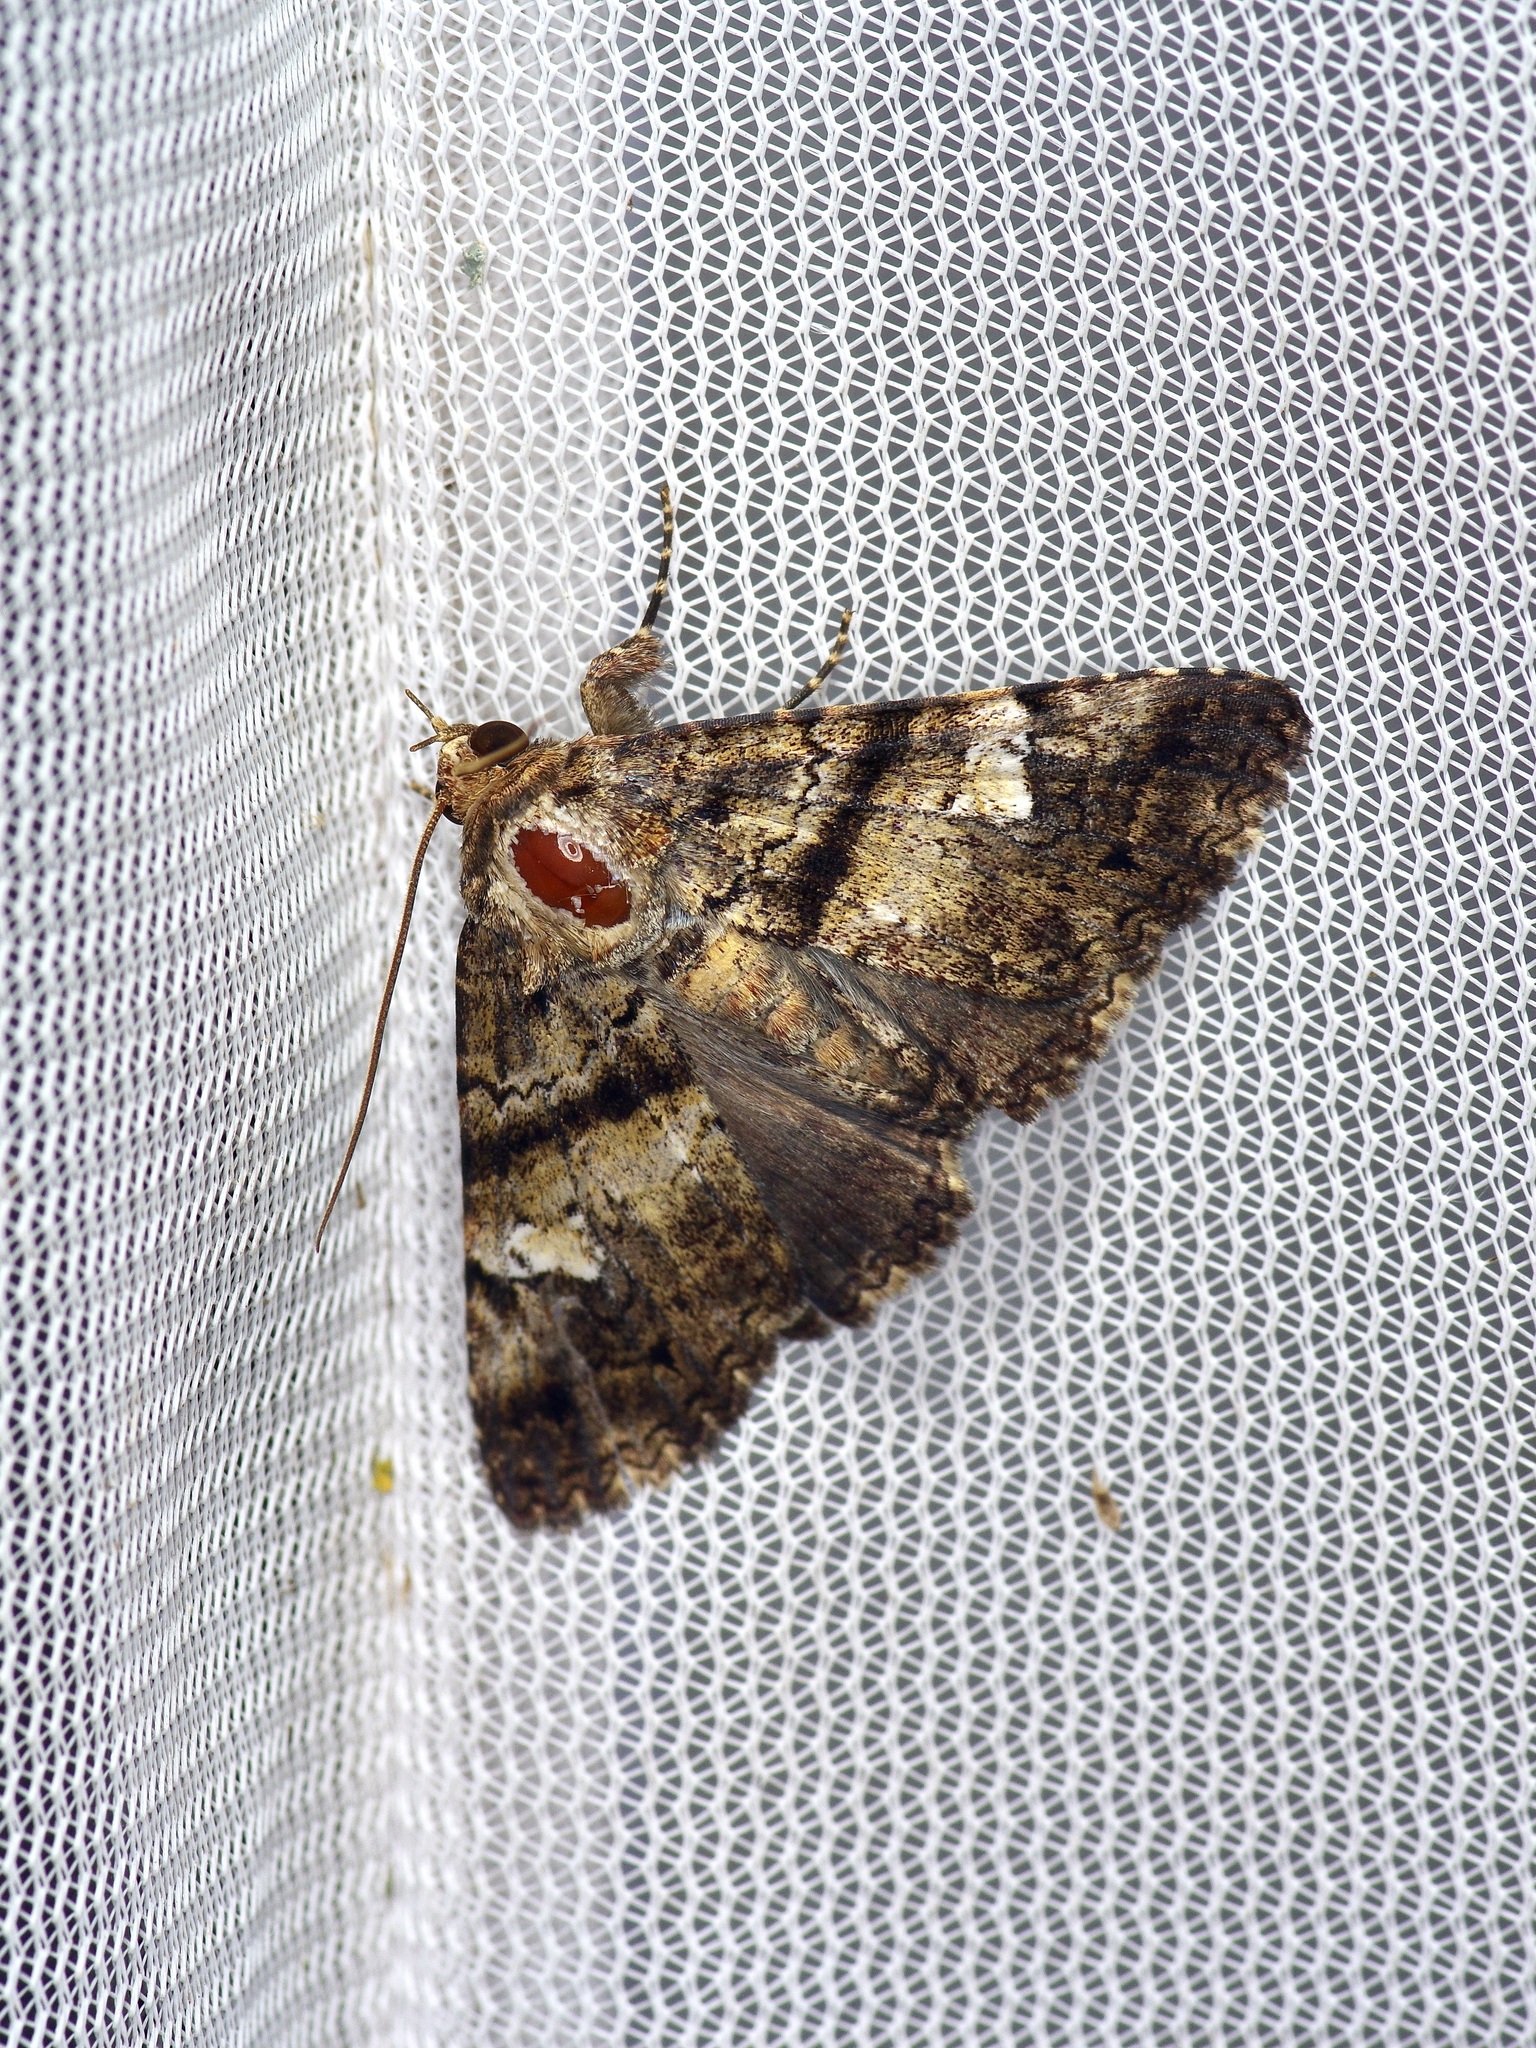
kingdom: Animalia
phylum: Arthropoda
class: Insecta
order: Lepidoptera
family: Erebidae
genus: Metria
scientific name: Metria amella
